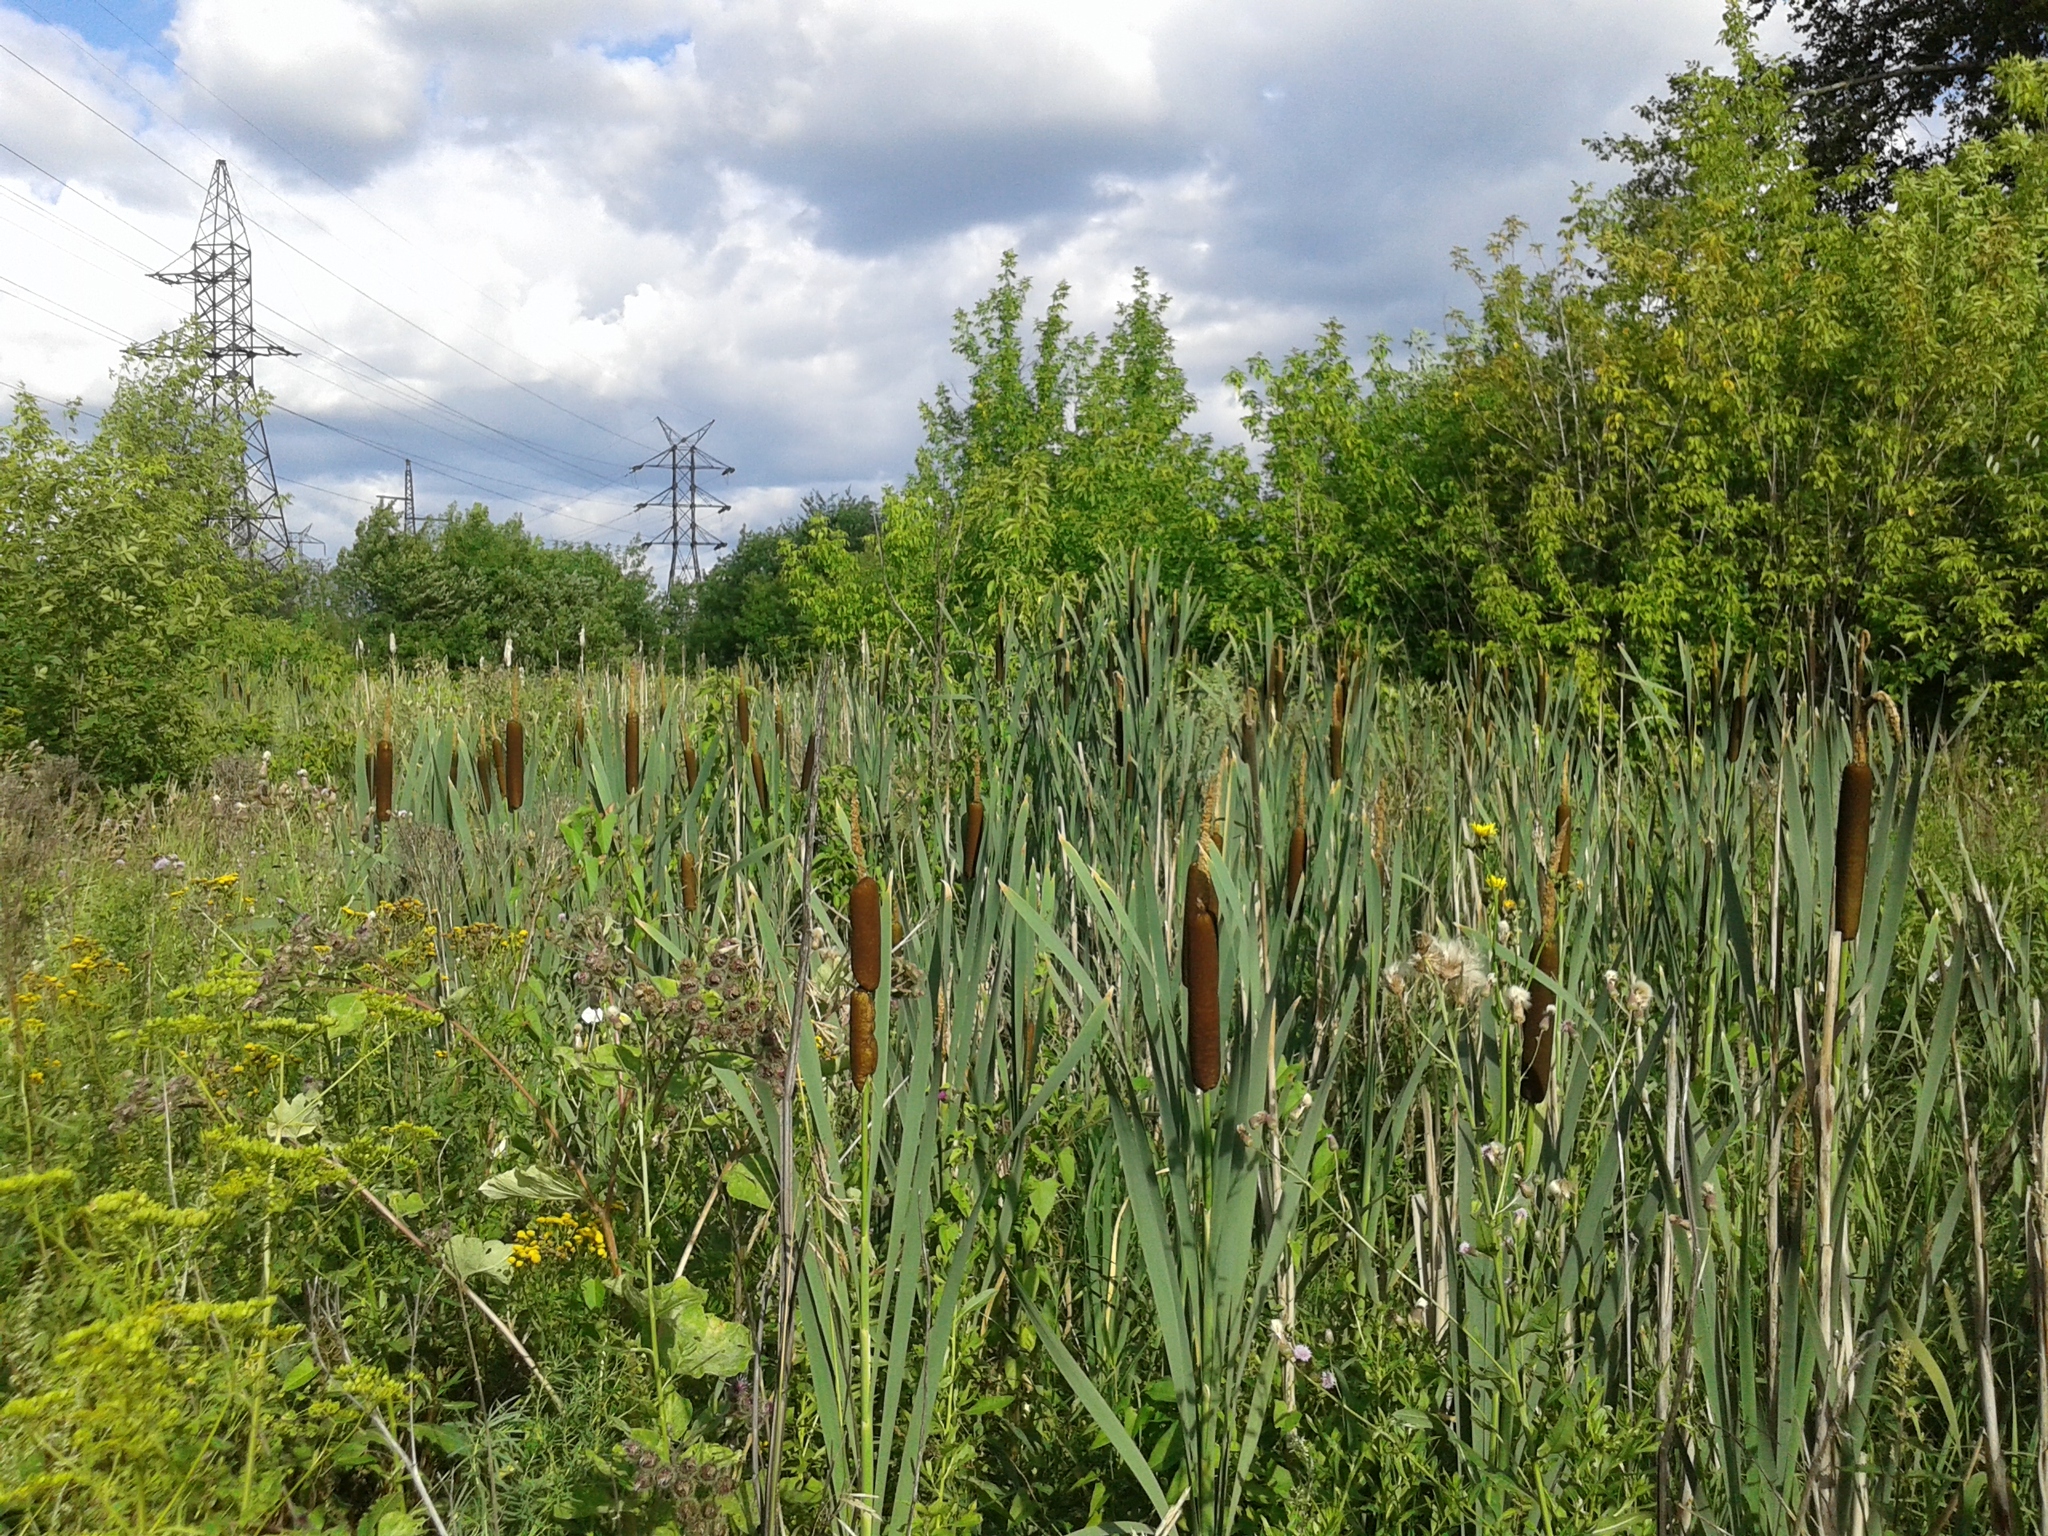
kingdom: Plantae
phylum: Tracheophyta
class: Liliopsida
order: Poales
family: Typhaceae
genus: Typha
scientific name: Typha latifolia
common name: Broadleaf cattail
